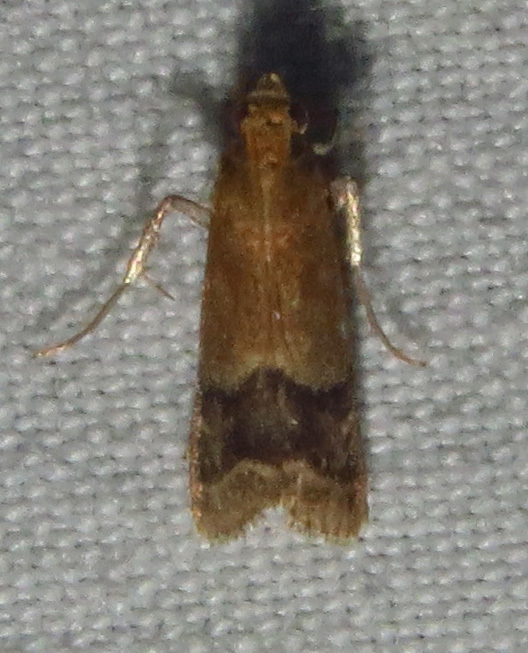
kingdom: Animalia
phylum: Arthropoda
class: Insecta
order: Lepidoptera
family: Pyralidae
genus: Eulogia
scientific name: Eulogia ochrifrontella
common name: Broad-banded eulogia moth
